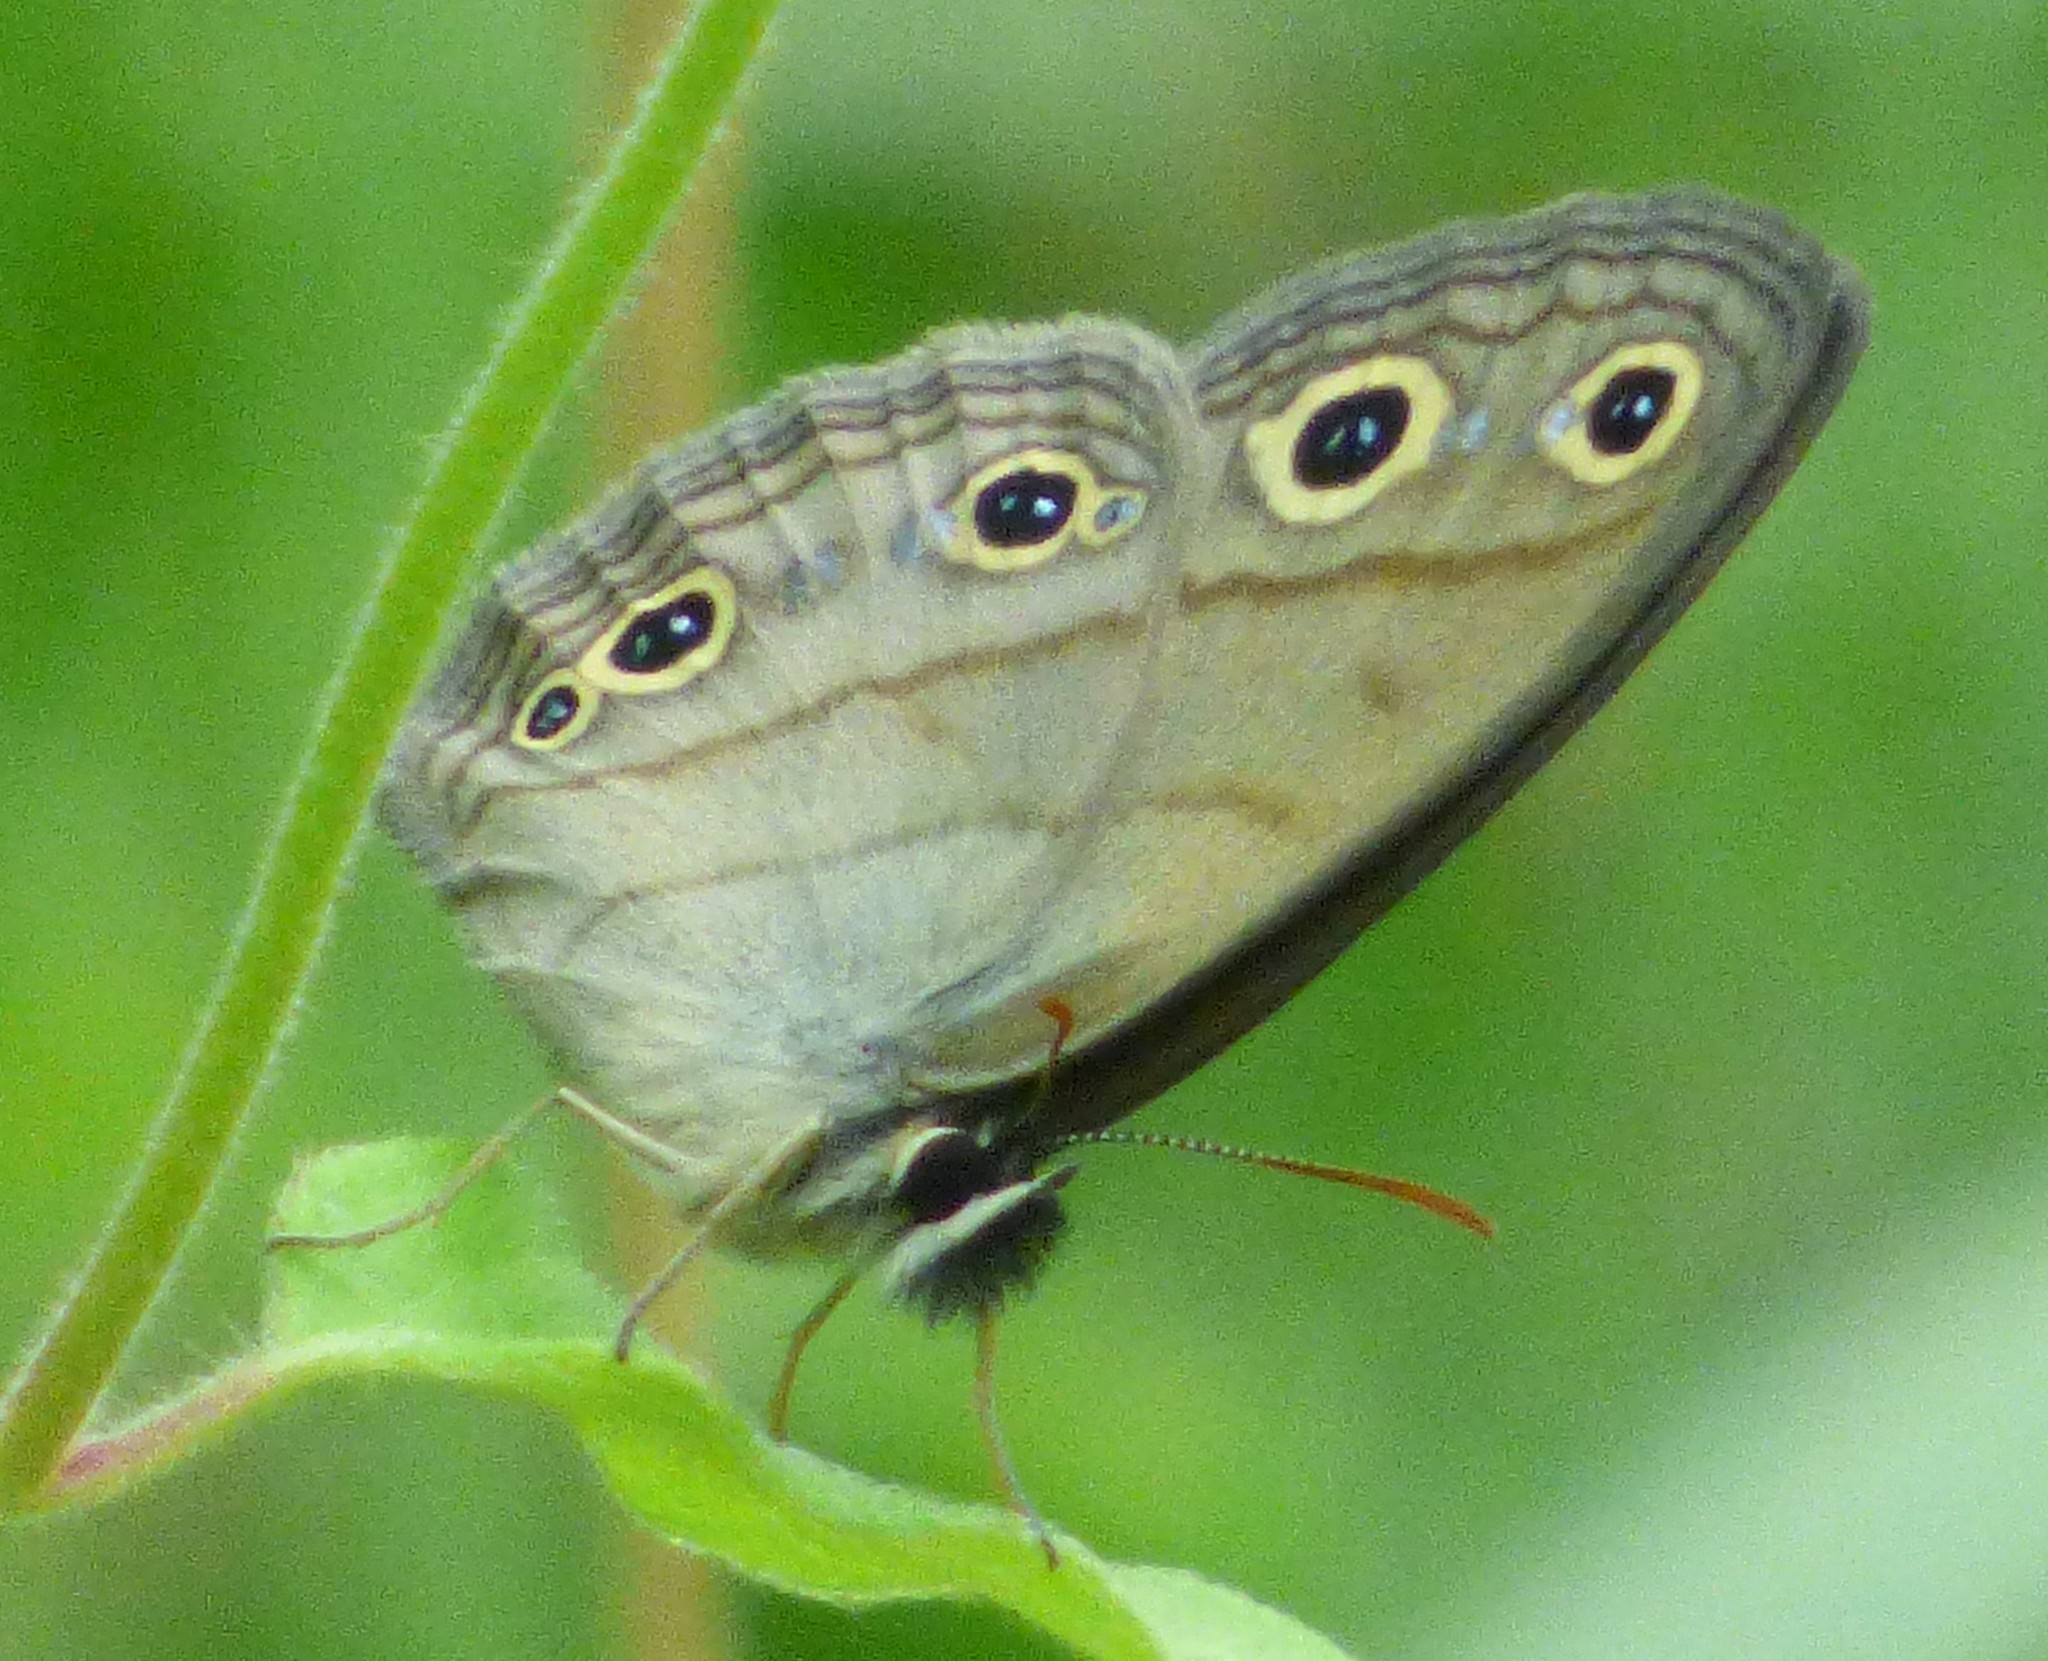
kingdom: Animalia
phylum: Arthropoda
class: Insecta
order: Lepidoptera
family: Nymphalidae
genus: Euptychia
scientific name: Euptychia cymela
